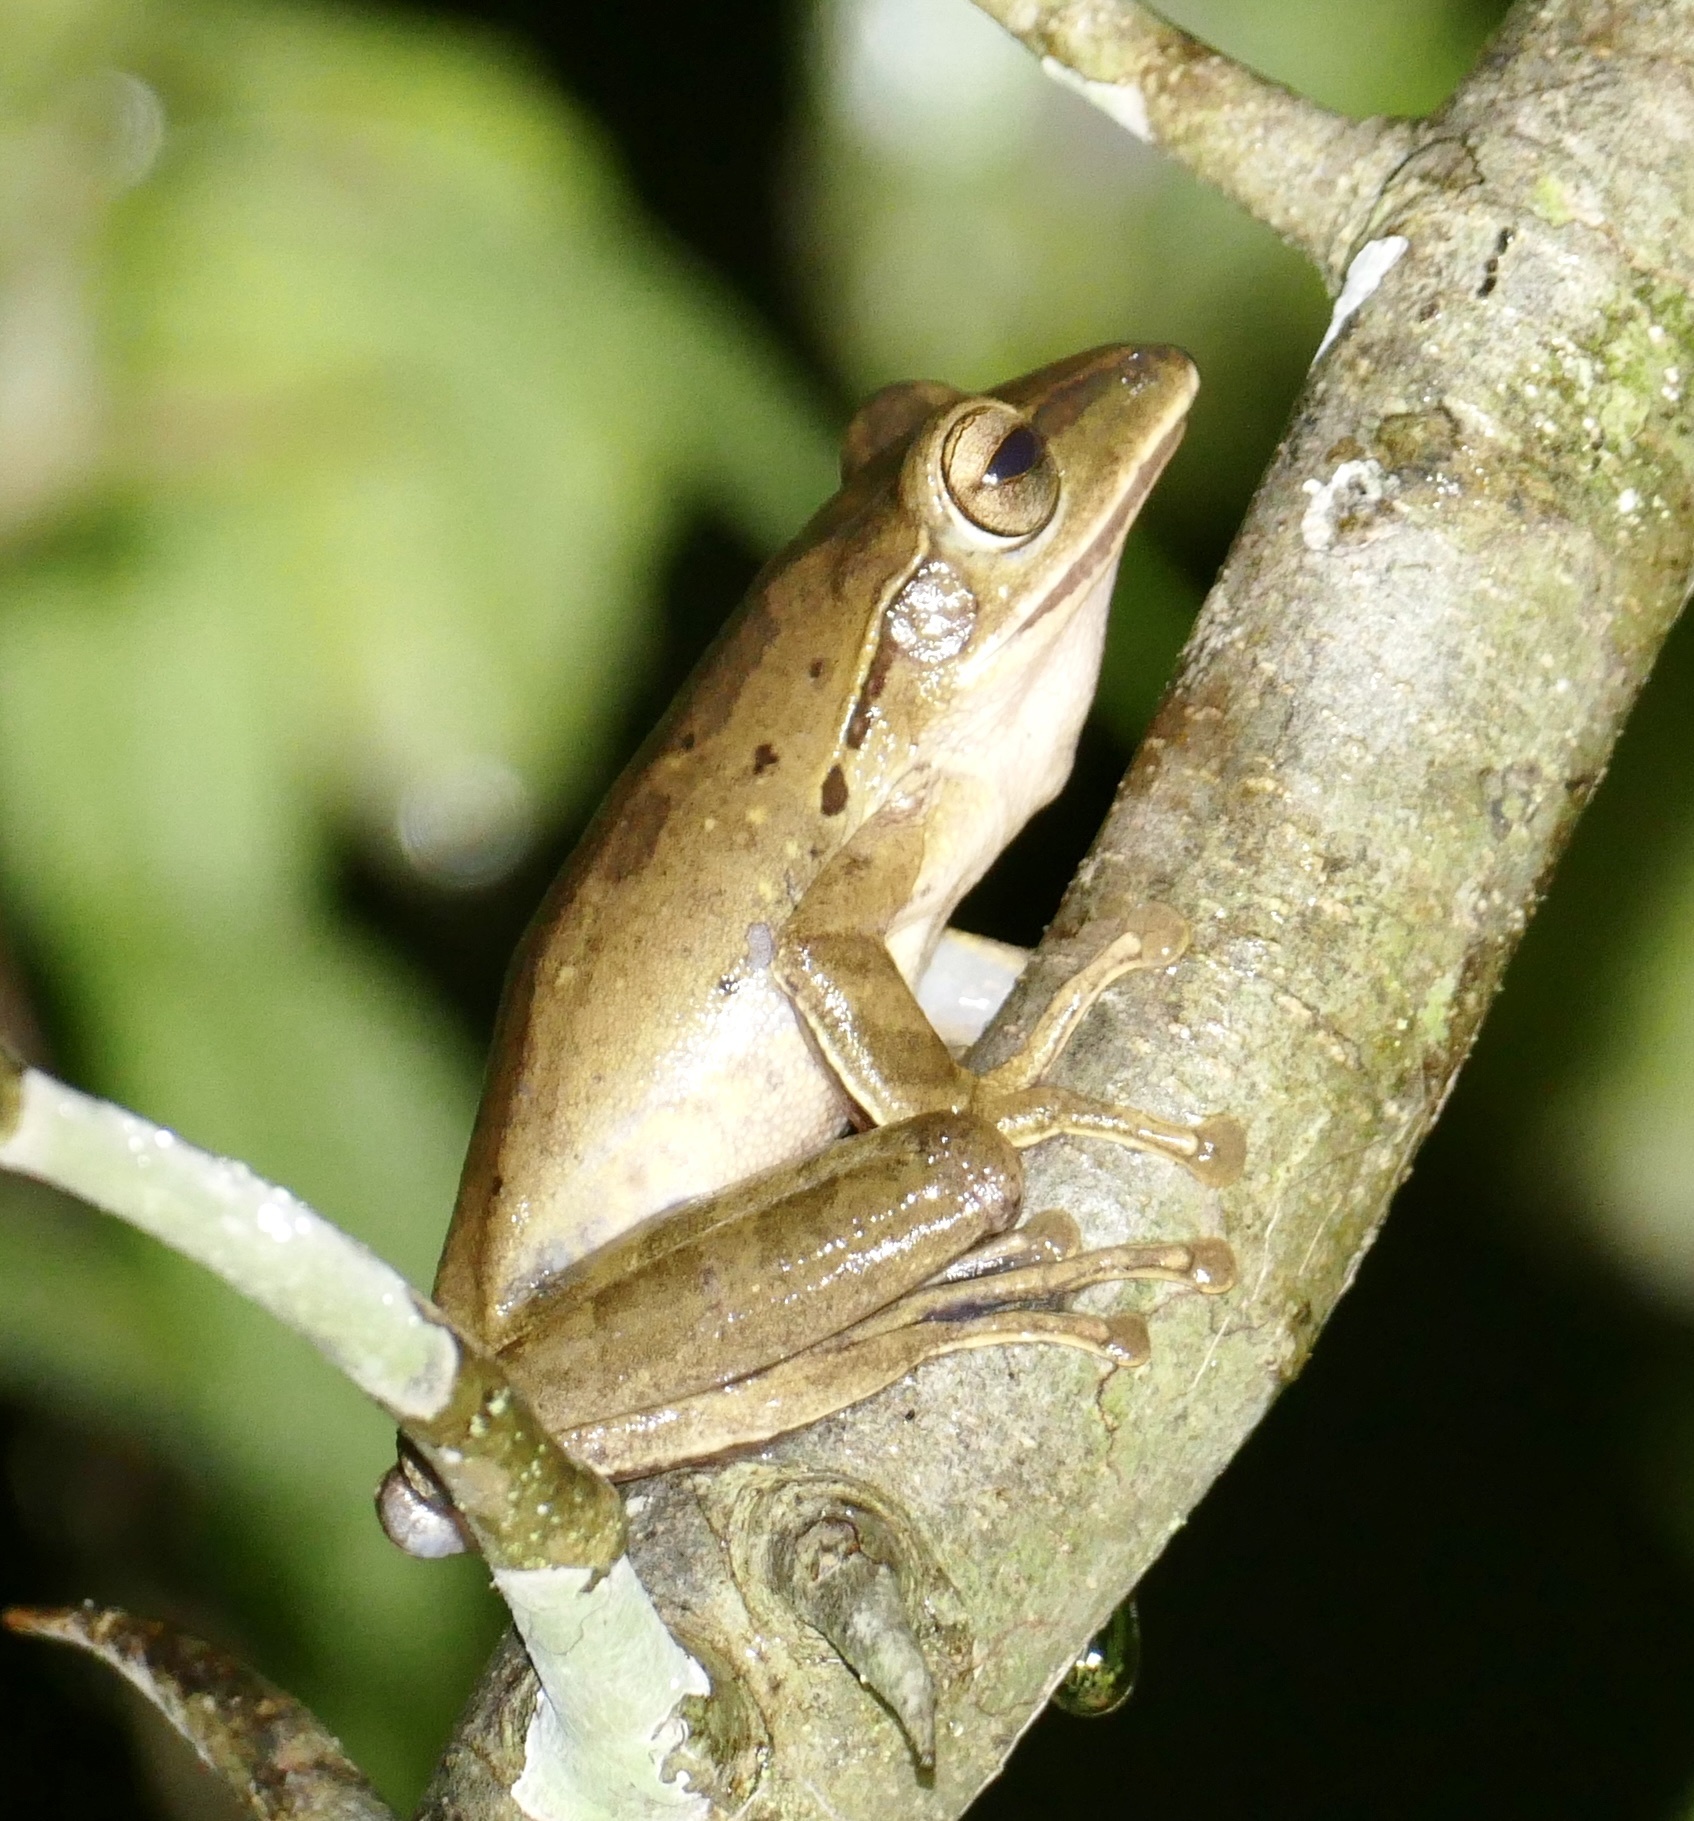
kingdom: Animalia
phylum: Chordata
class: Amphibia
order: Anura
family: Rhacophoridae
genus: Polypedates
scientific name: Polypedates iskandari
